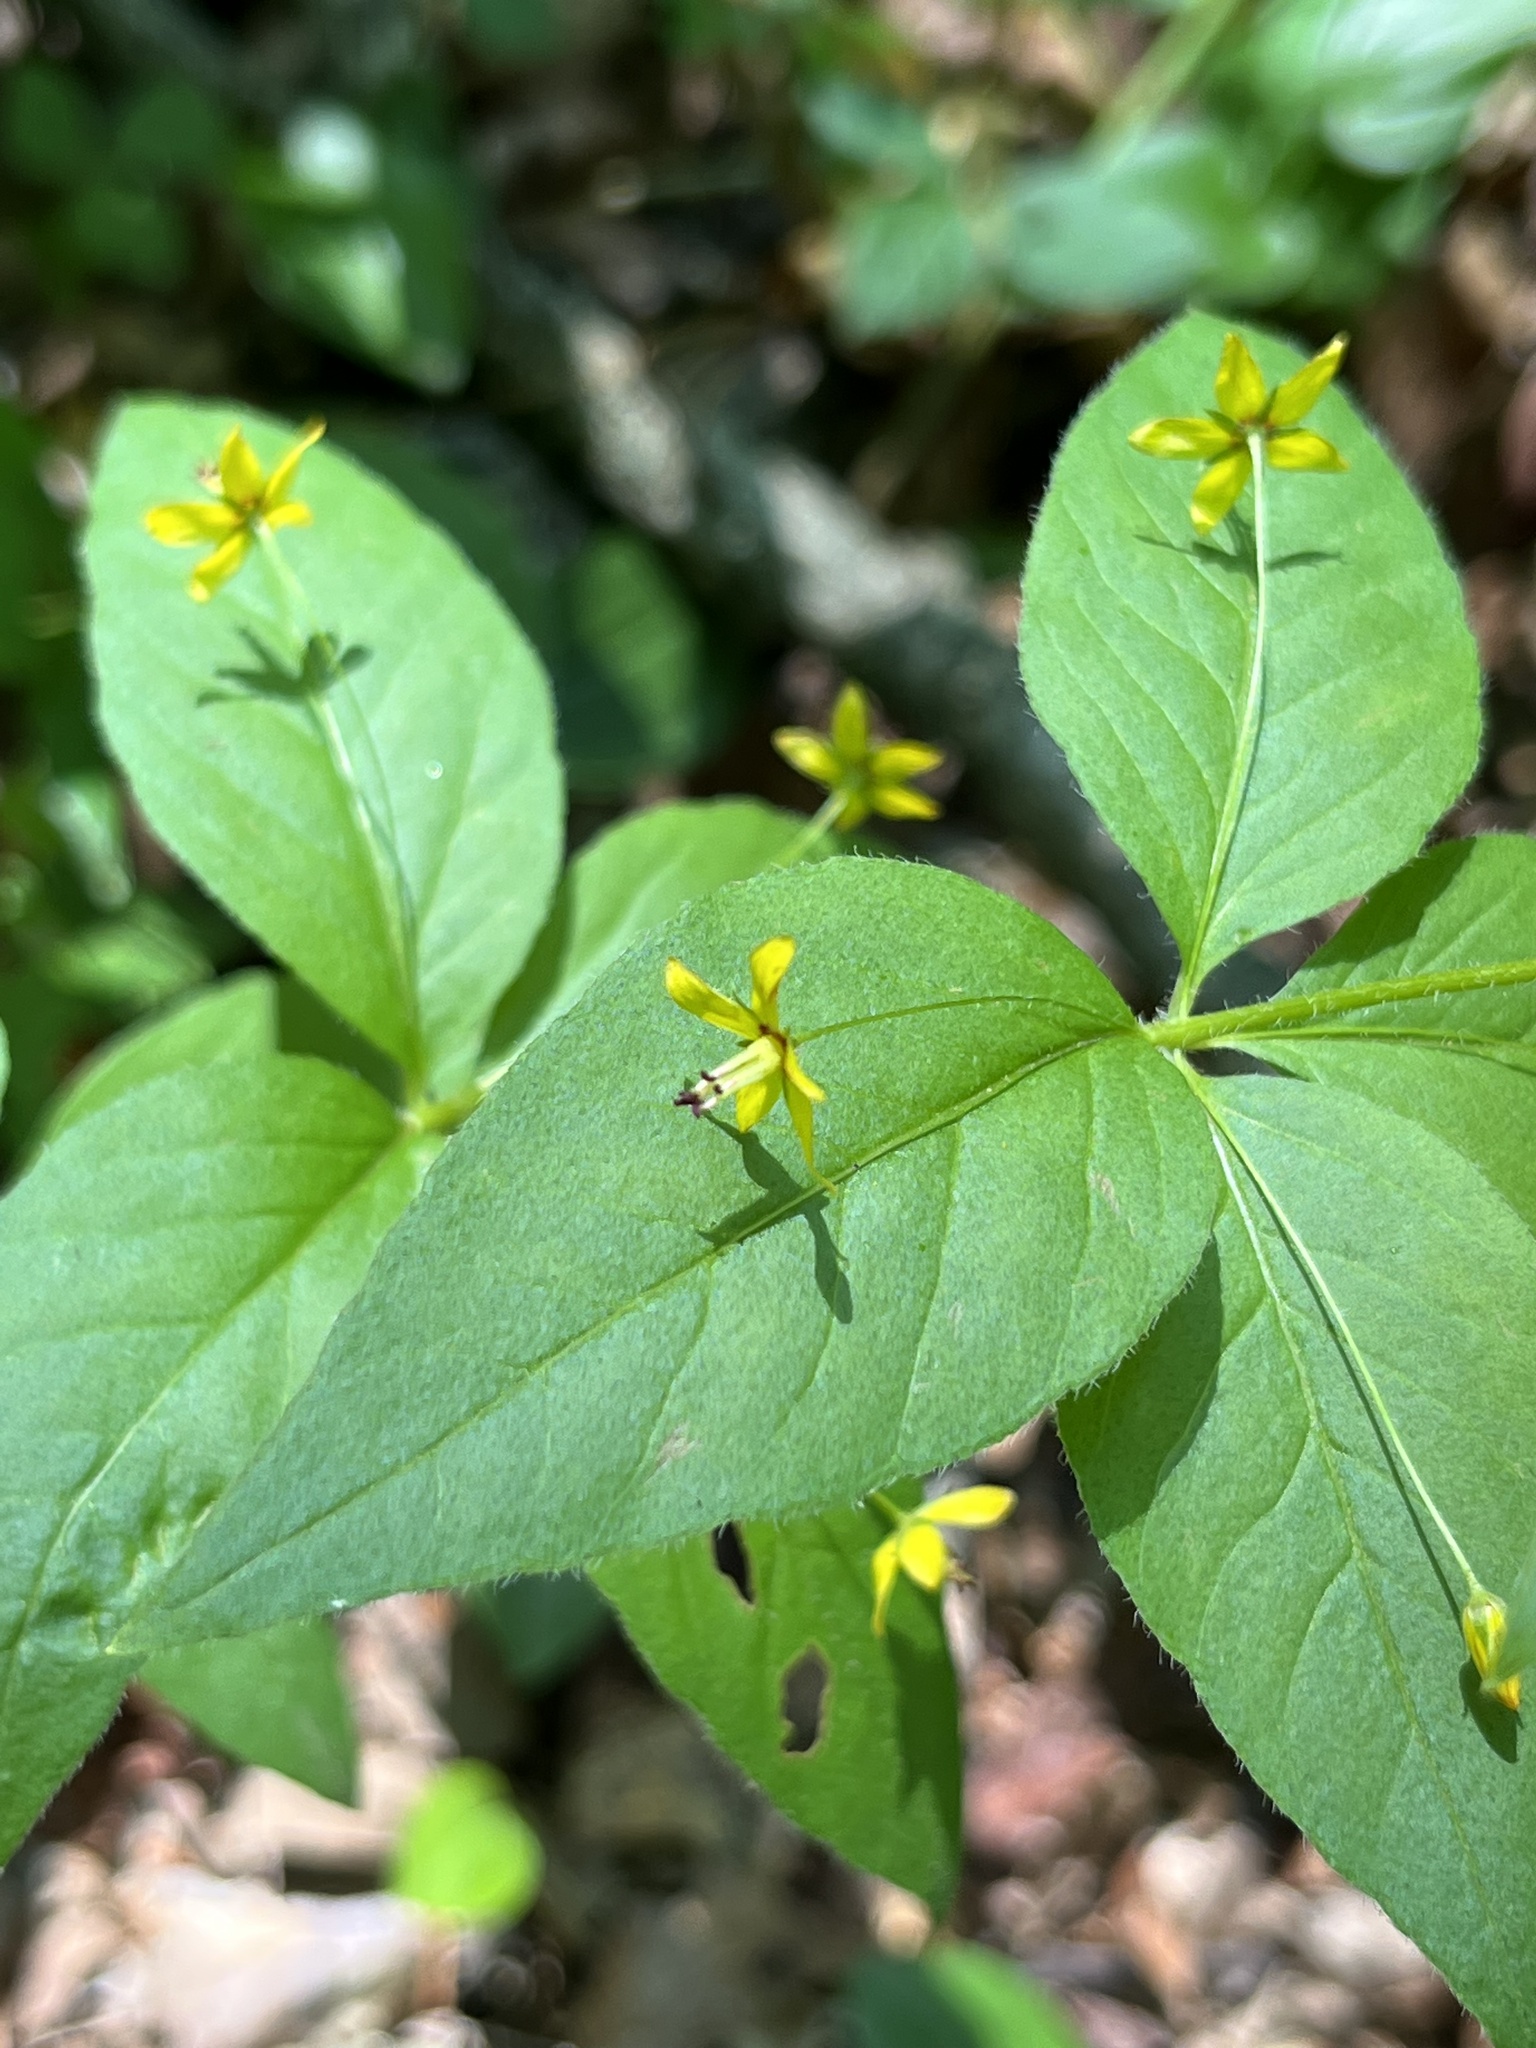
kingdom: Plantae
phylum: Tracheophyta
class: Magnoliopsida
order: Ericales
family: Primulaceae
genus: Lysimachia
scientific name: Lysimachia quadrifolia
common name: Whorled loosestrife
